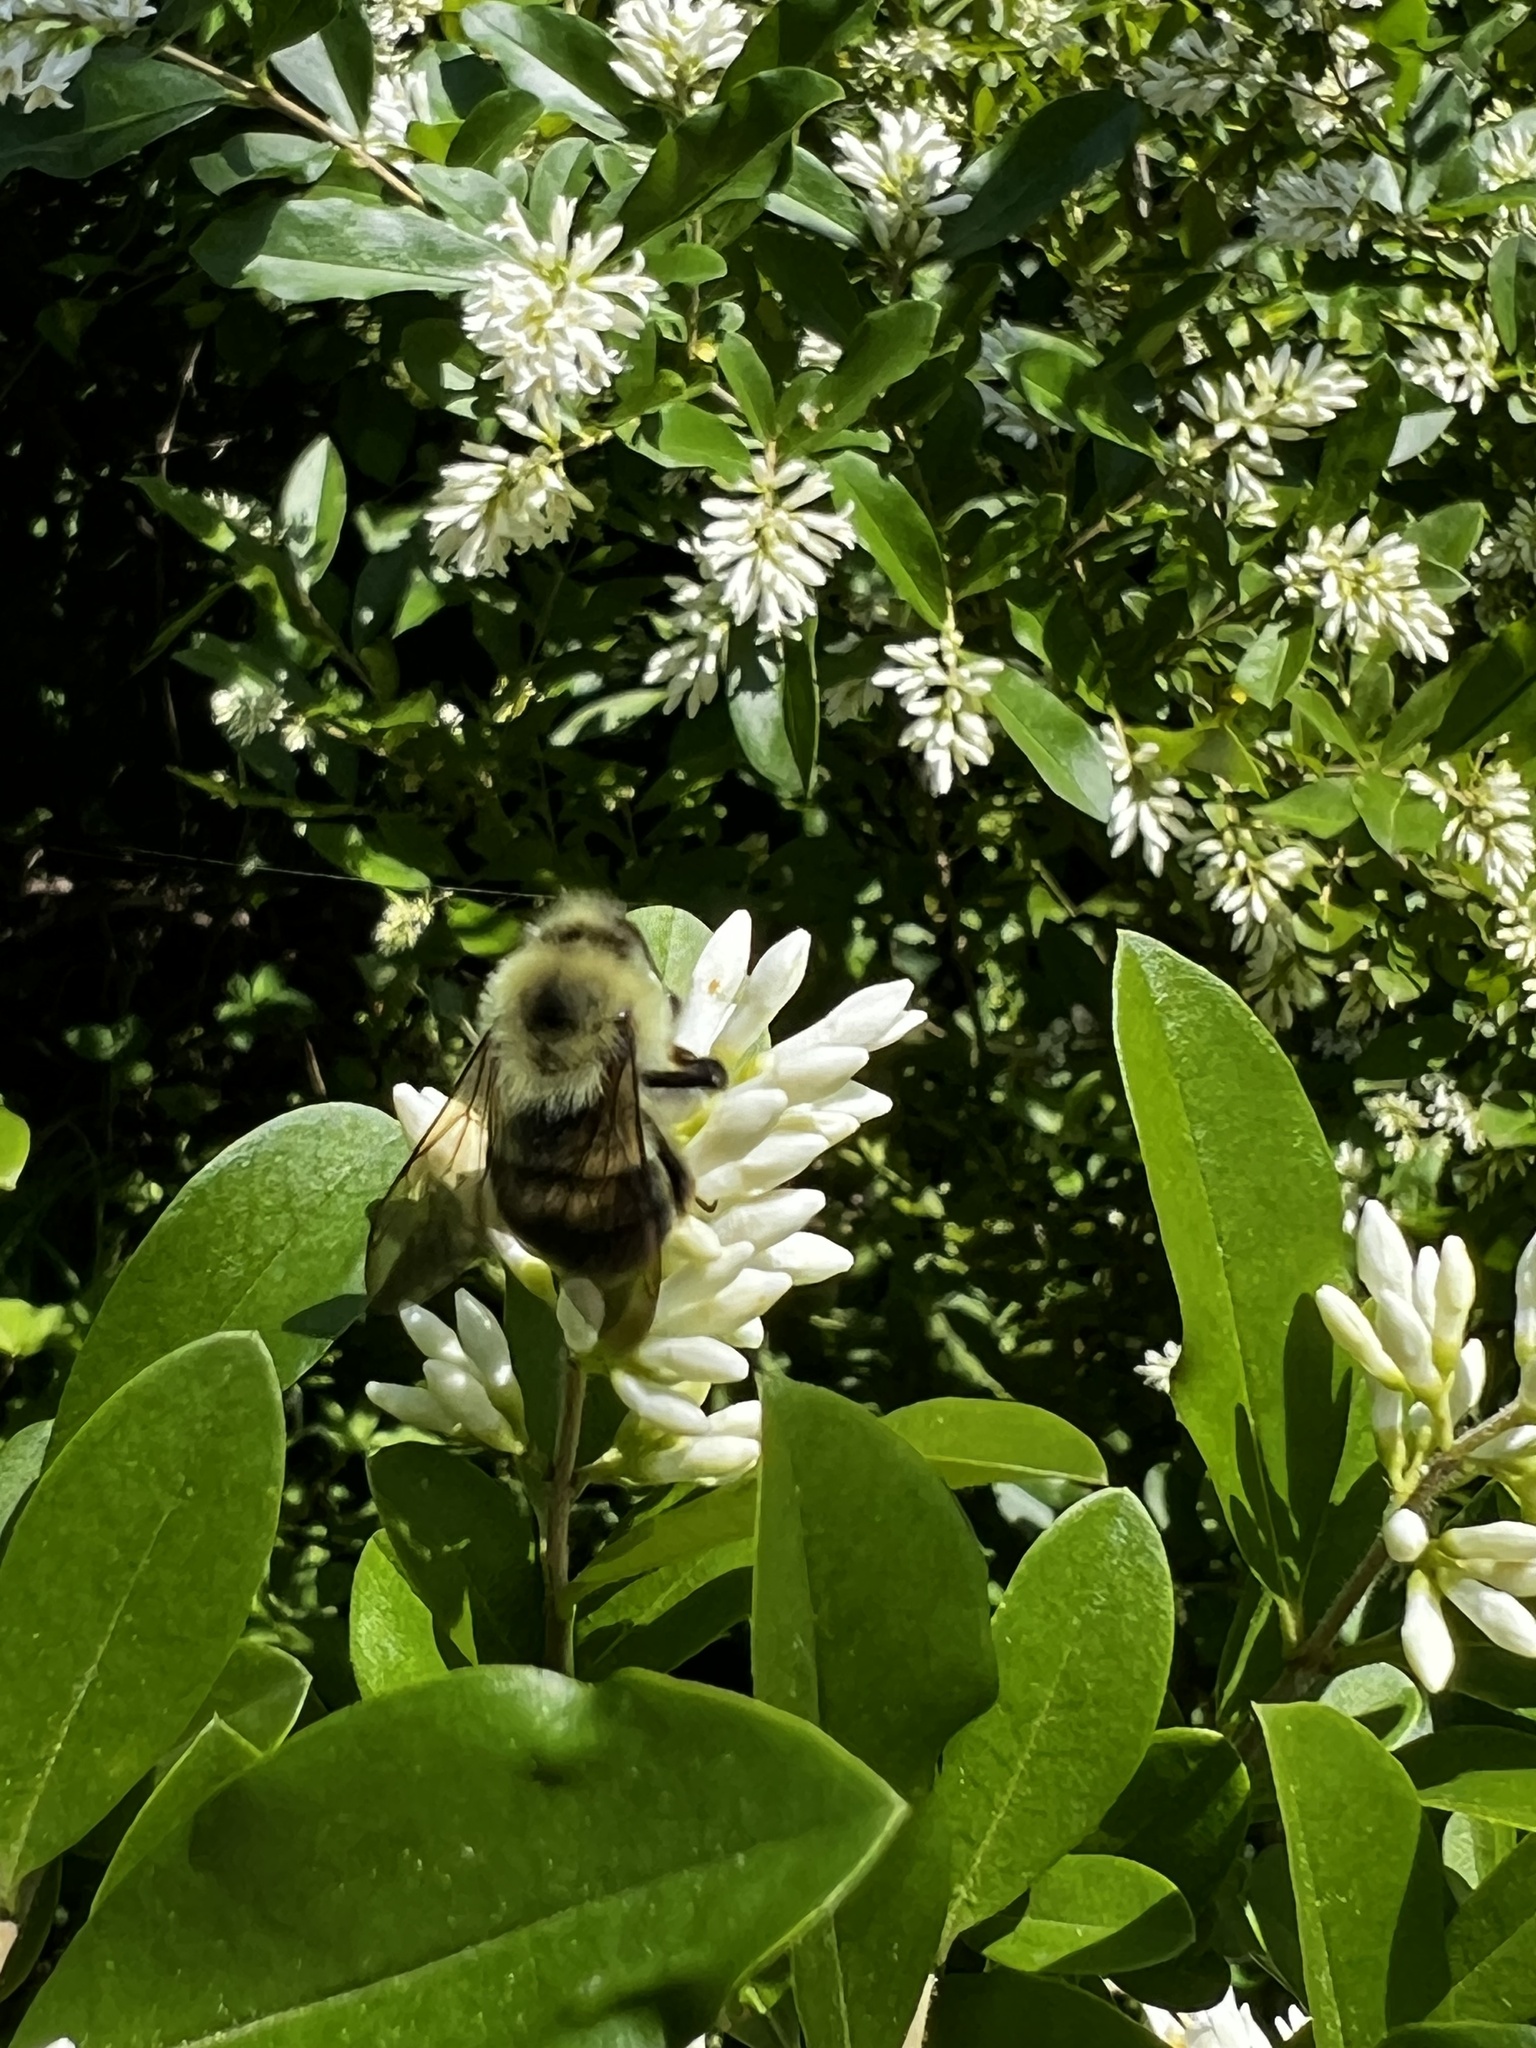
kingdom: Animalia
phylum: Arthropoda
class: Insecta
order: Hymenoptera
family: Apidae
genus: Bombus
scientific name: Bombus bimaculatus
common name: Two-spotted bumble bee
